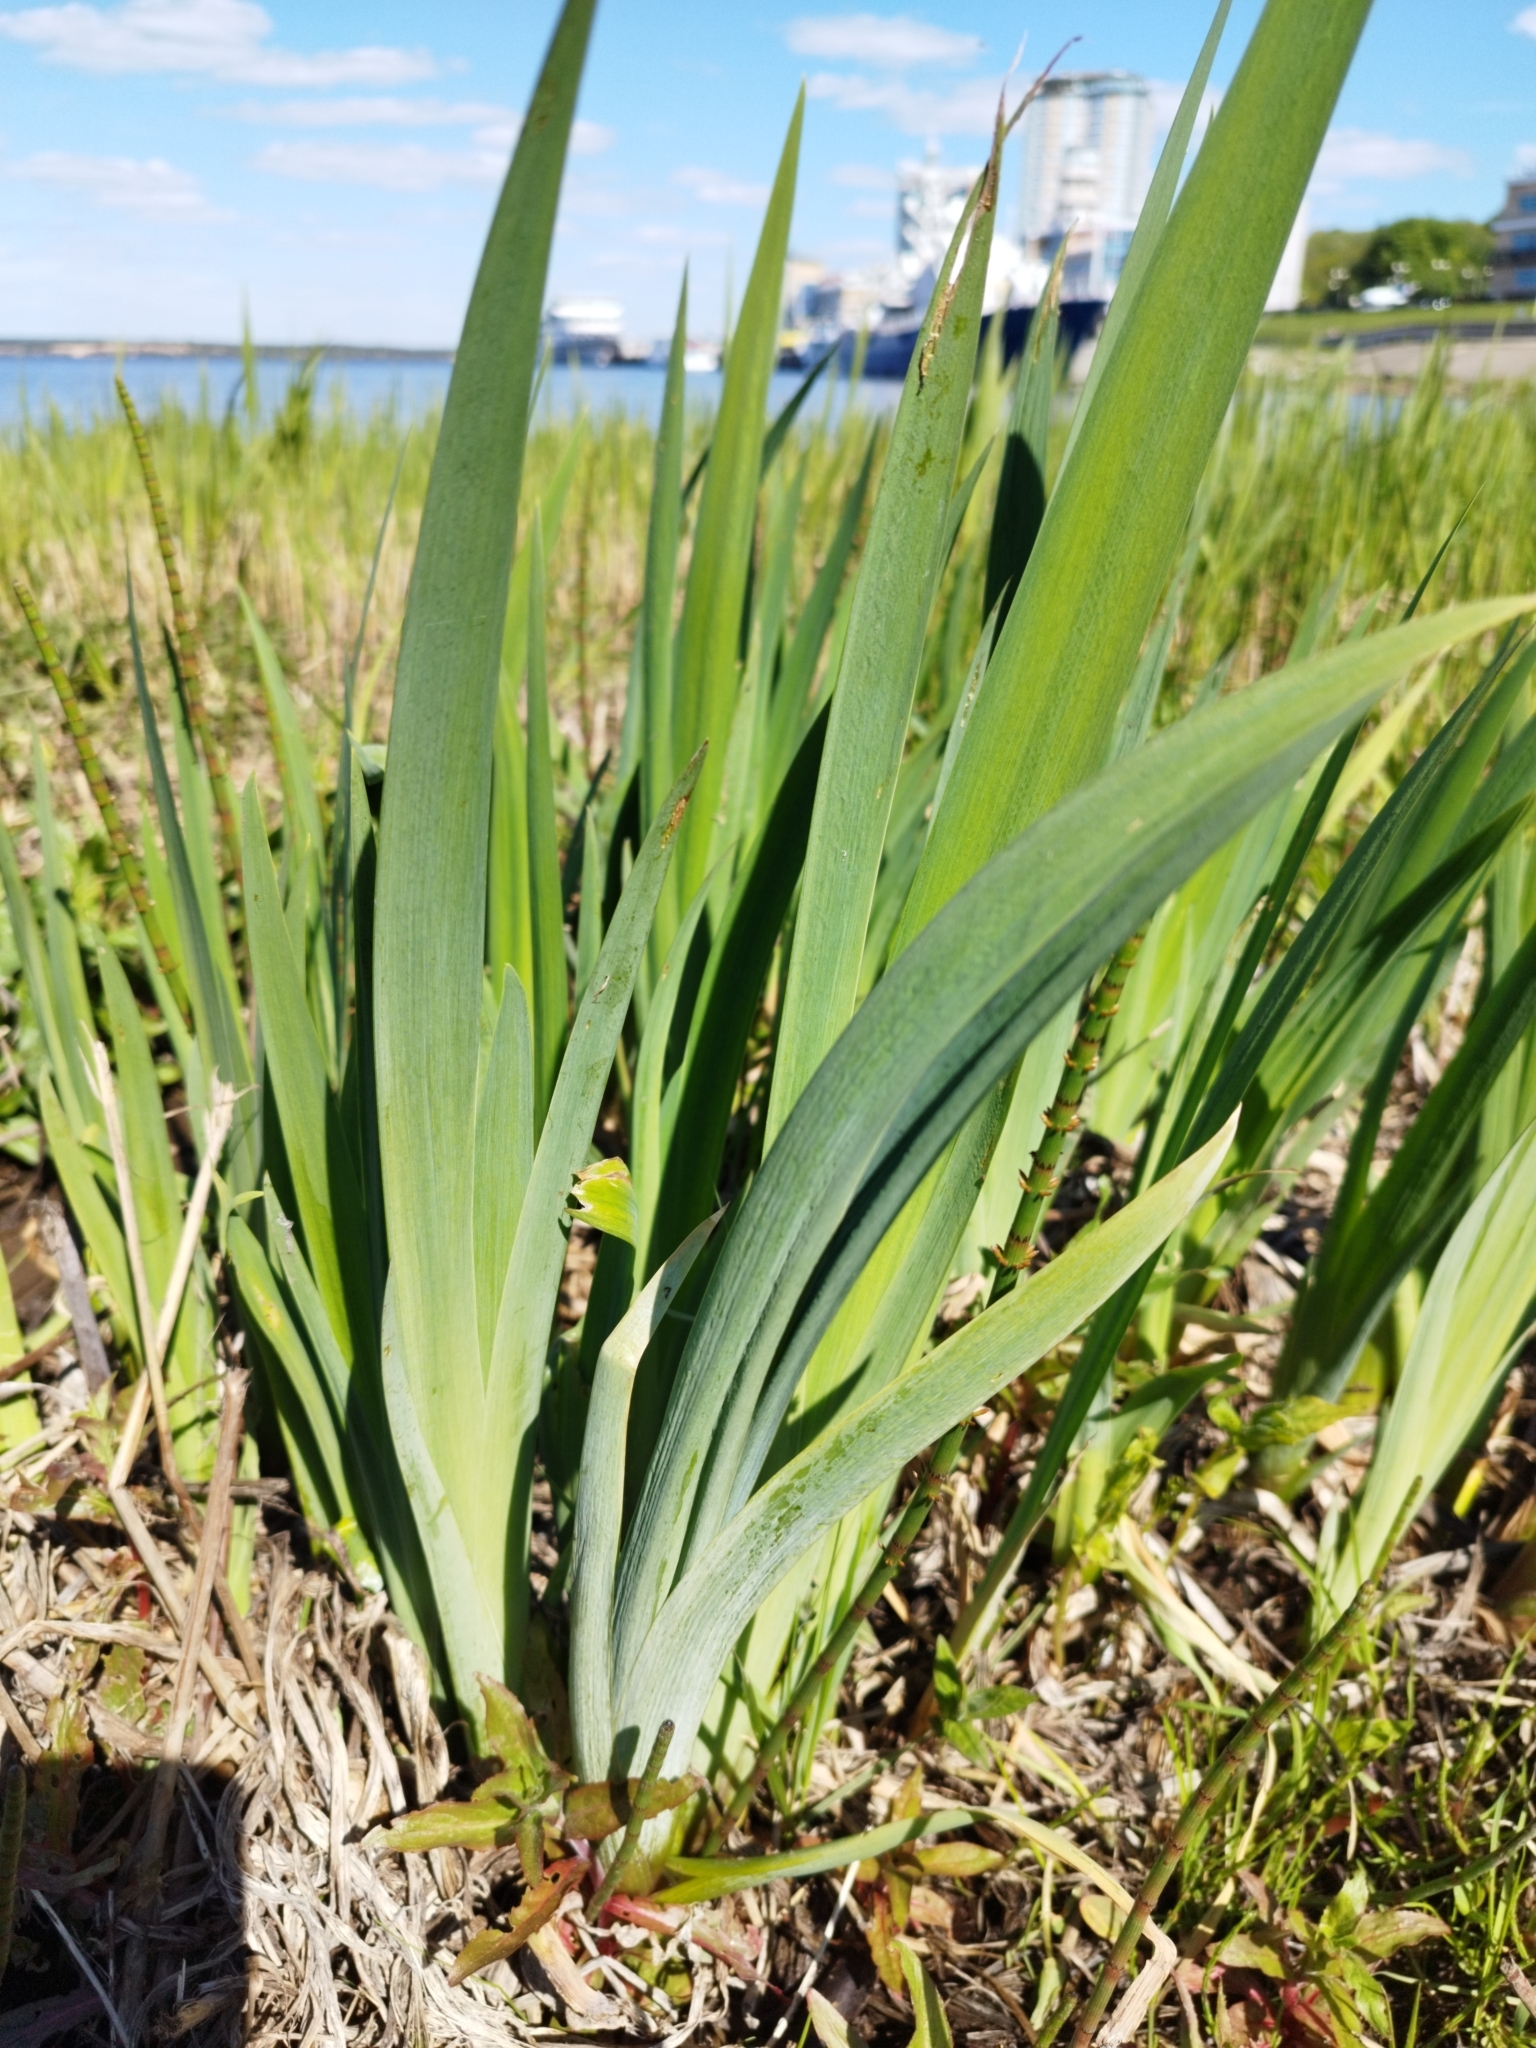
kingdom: Plantae
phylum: Tracheophyta
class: Liliopsida
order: Asparagales
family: Iridaceae
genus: Iris
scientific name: Iris pseudacorus
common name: Yellow flag
